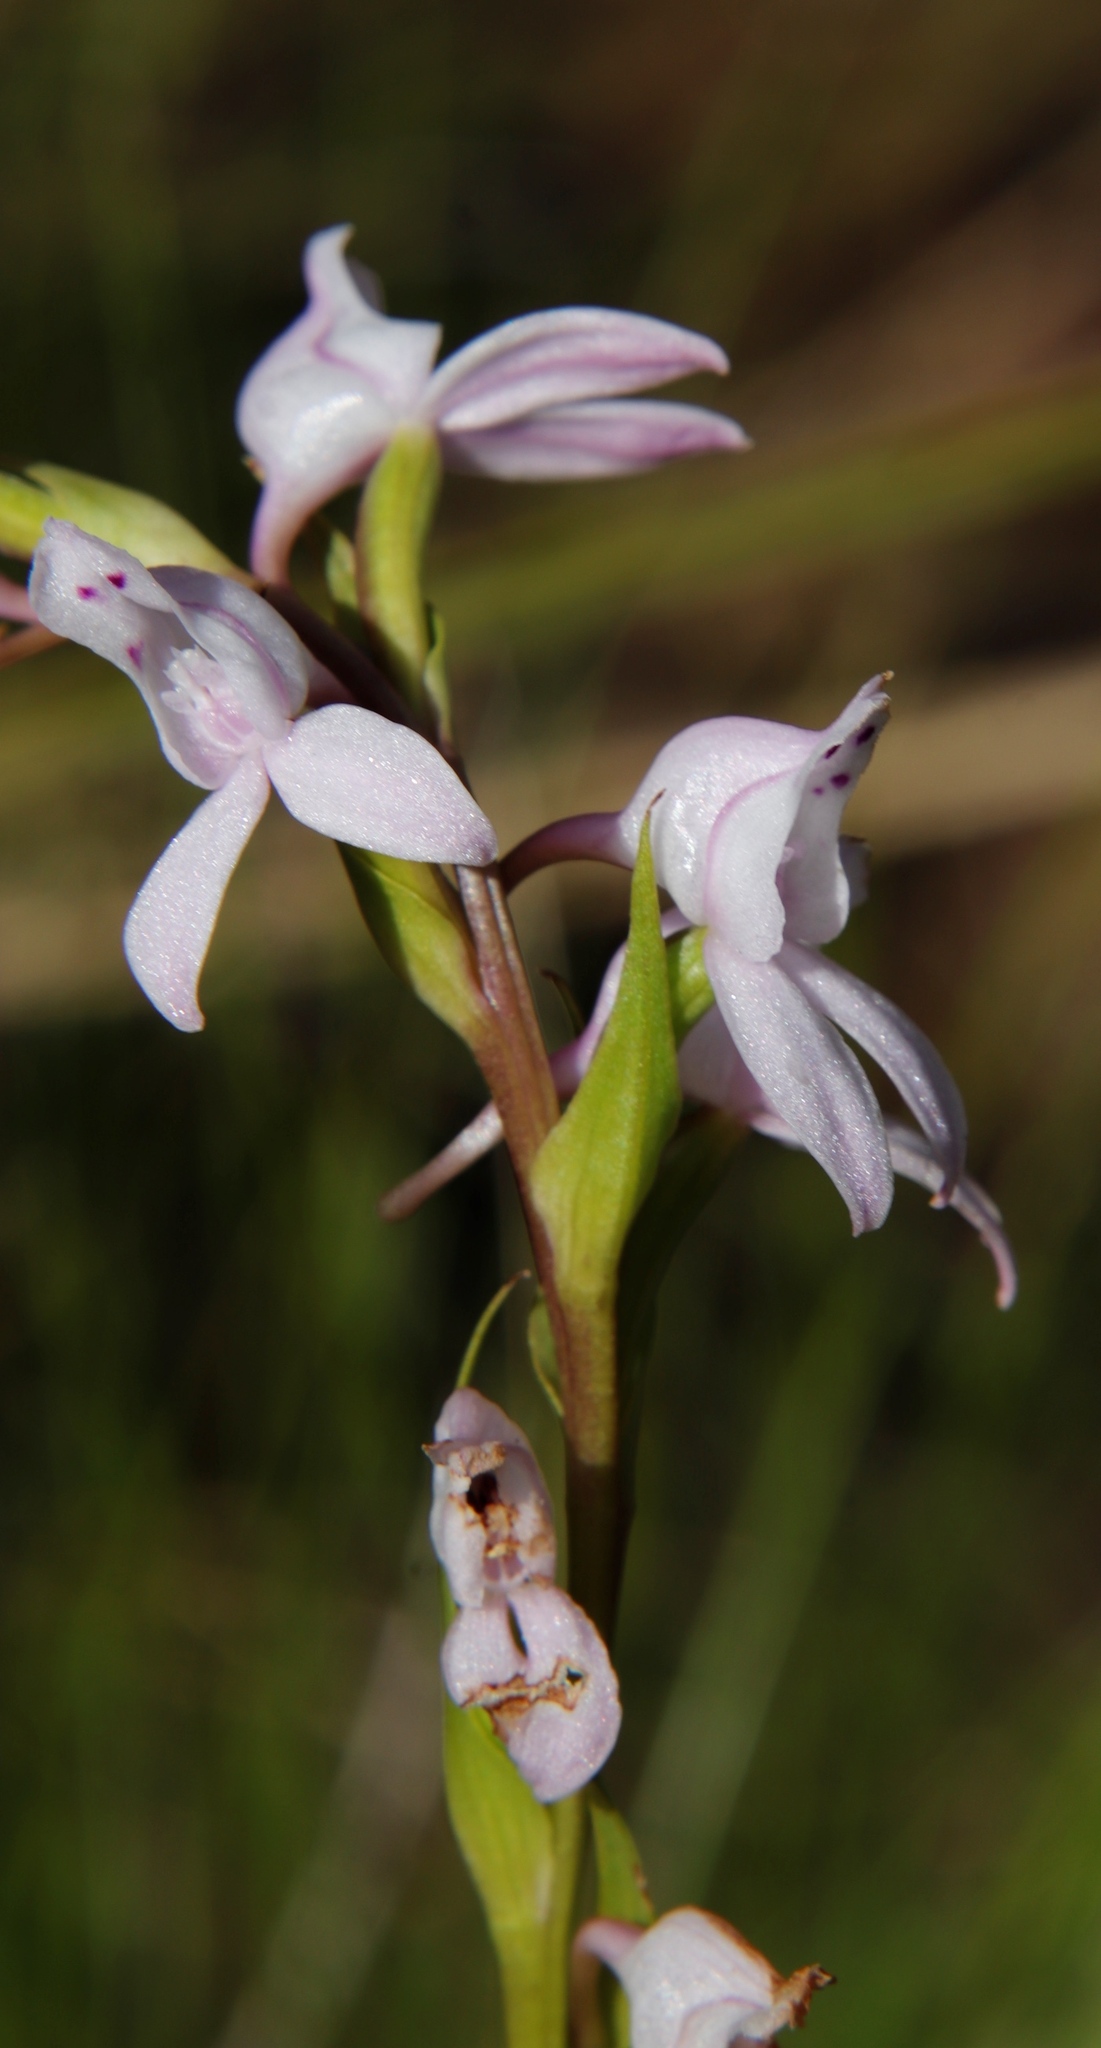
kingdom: Plantae
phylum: Tracheophyta
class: Liliopsida
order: Asparagales
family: Orchidaceae
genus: Brownleea
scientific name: Brownleea recurvata
